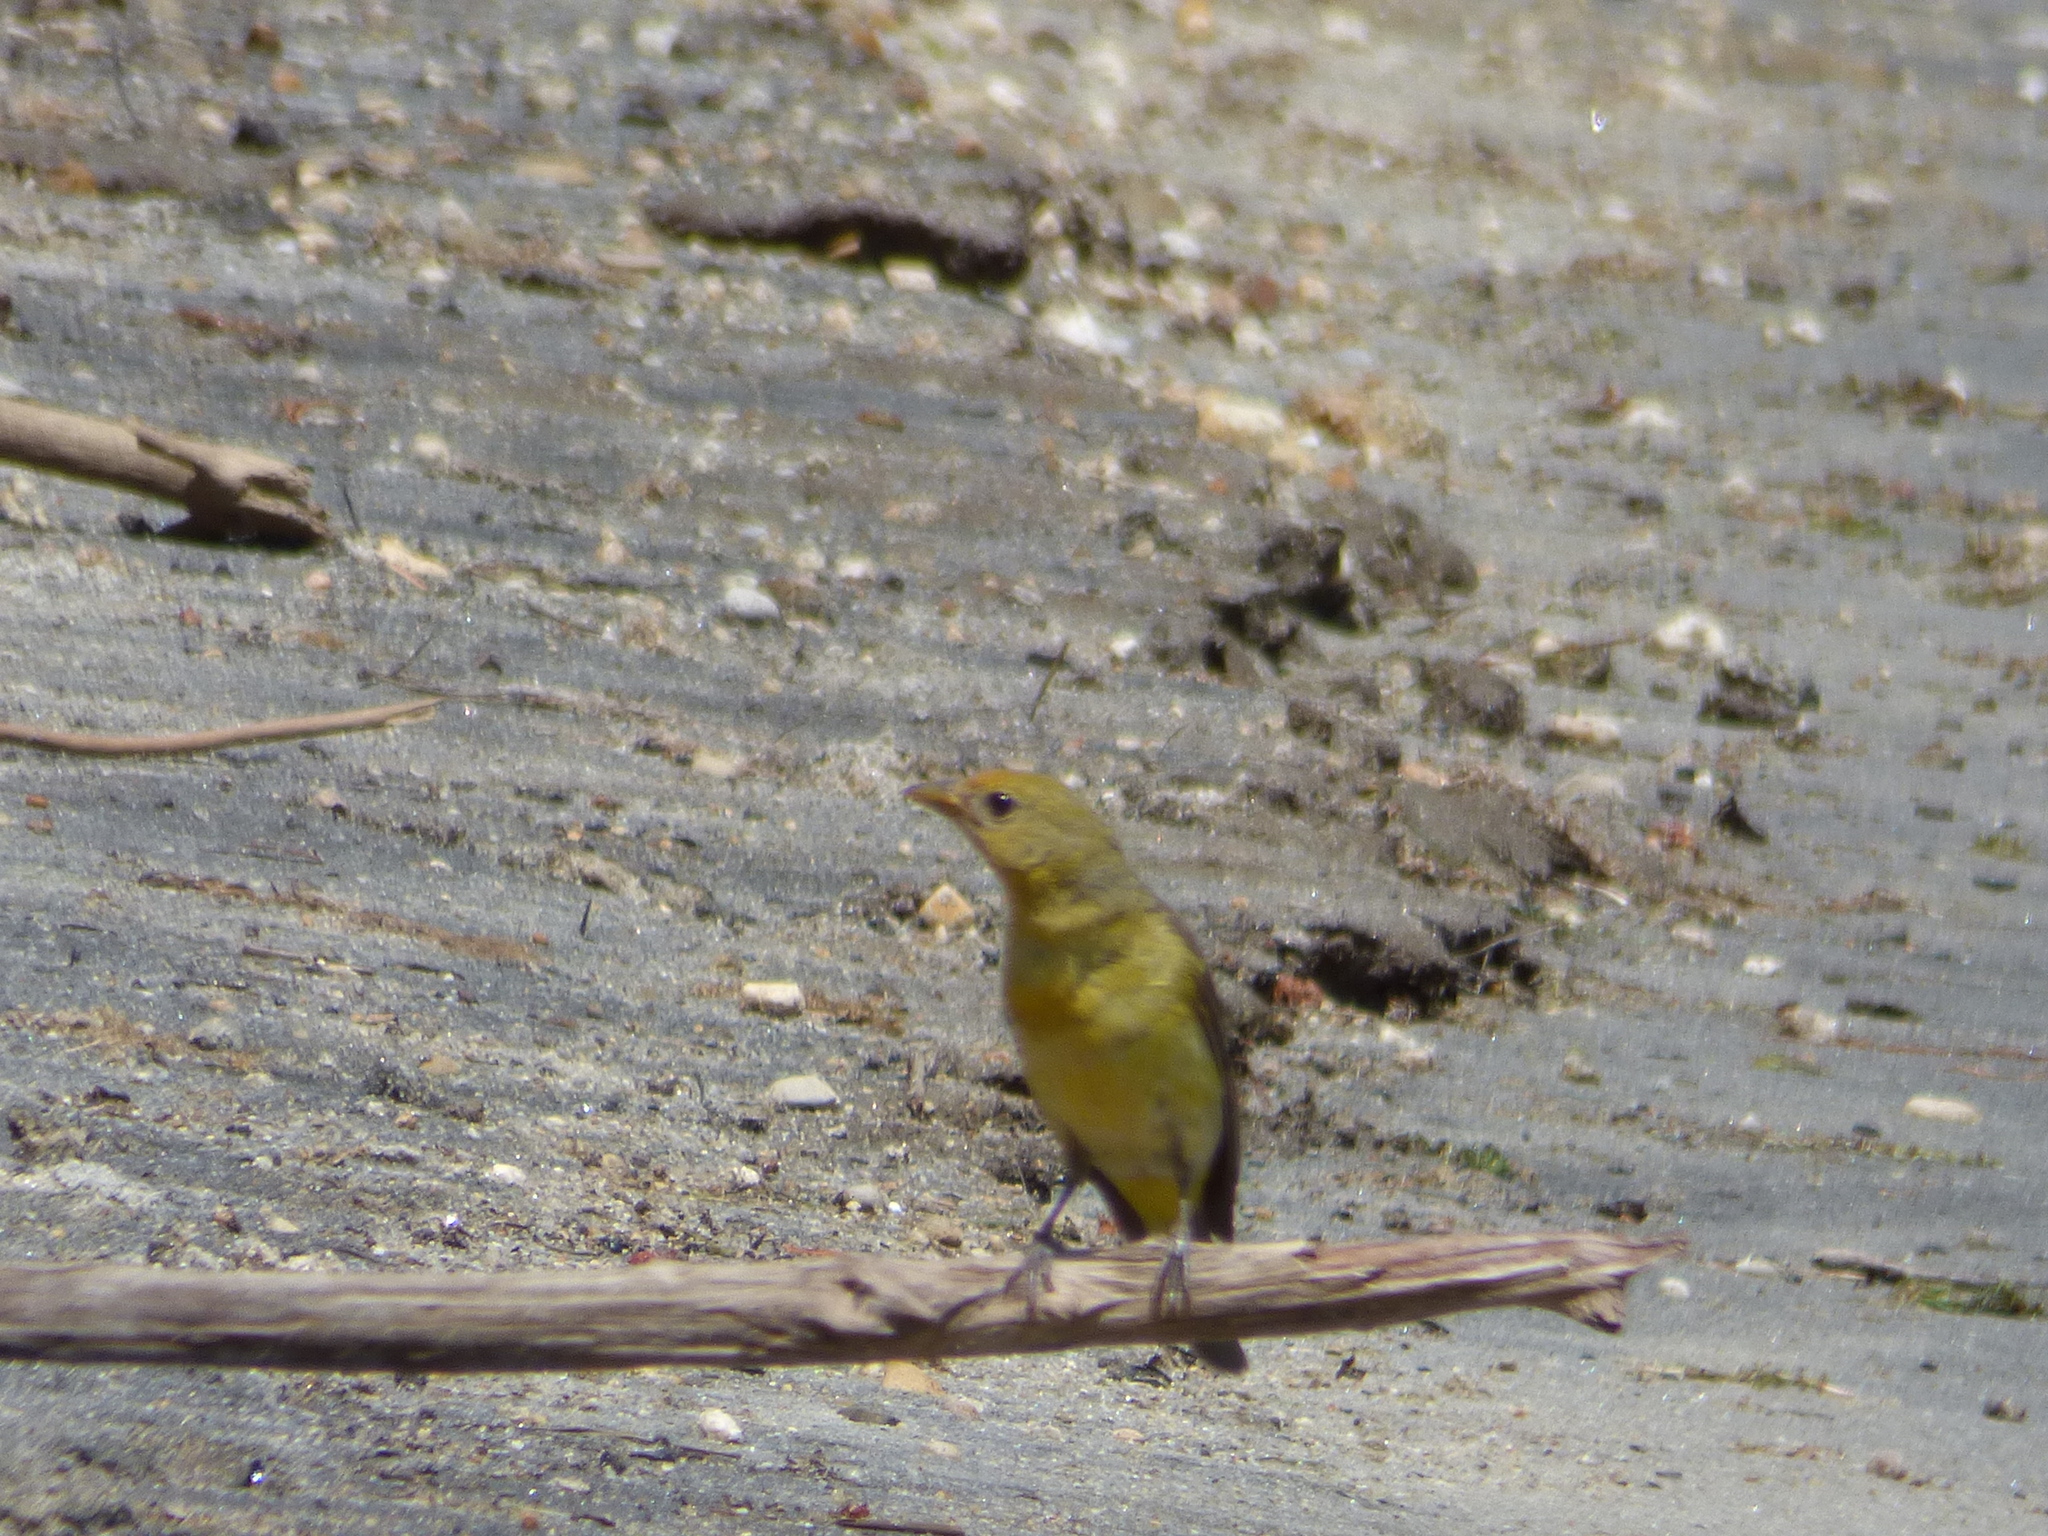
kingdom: Animalia
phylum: Chordata
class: Aves
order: Passeriformes
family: Cardinalidae
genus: Piranga
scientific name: Piranga ludoviciana
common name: Western tanager
